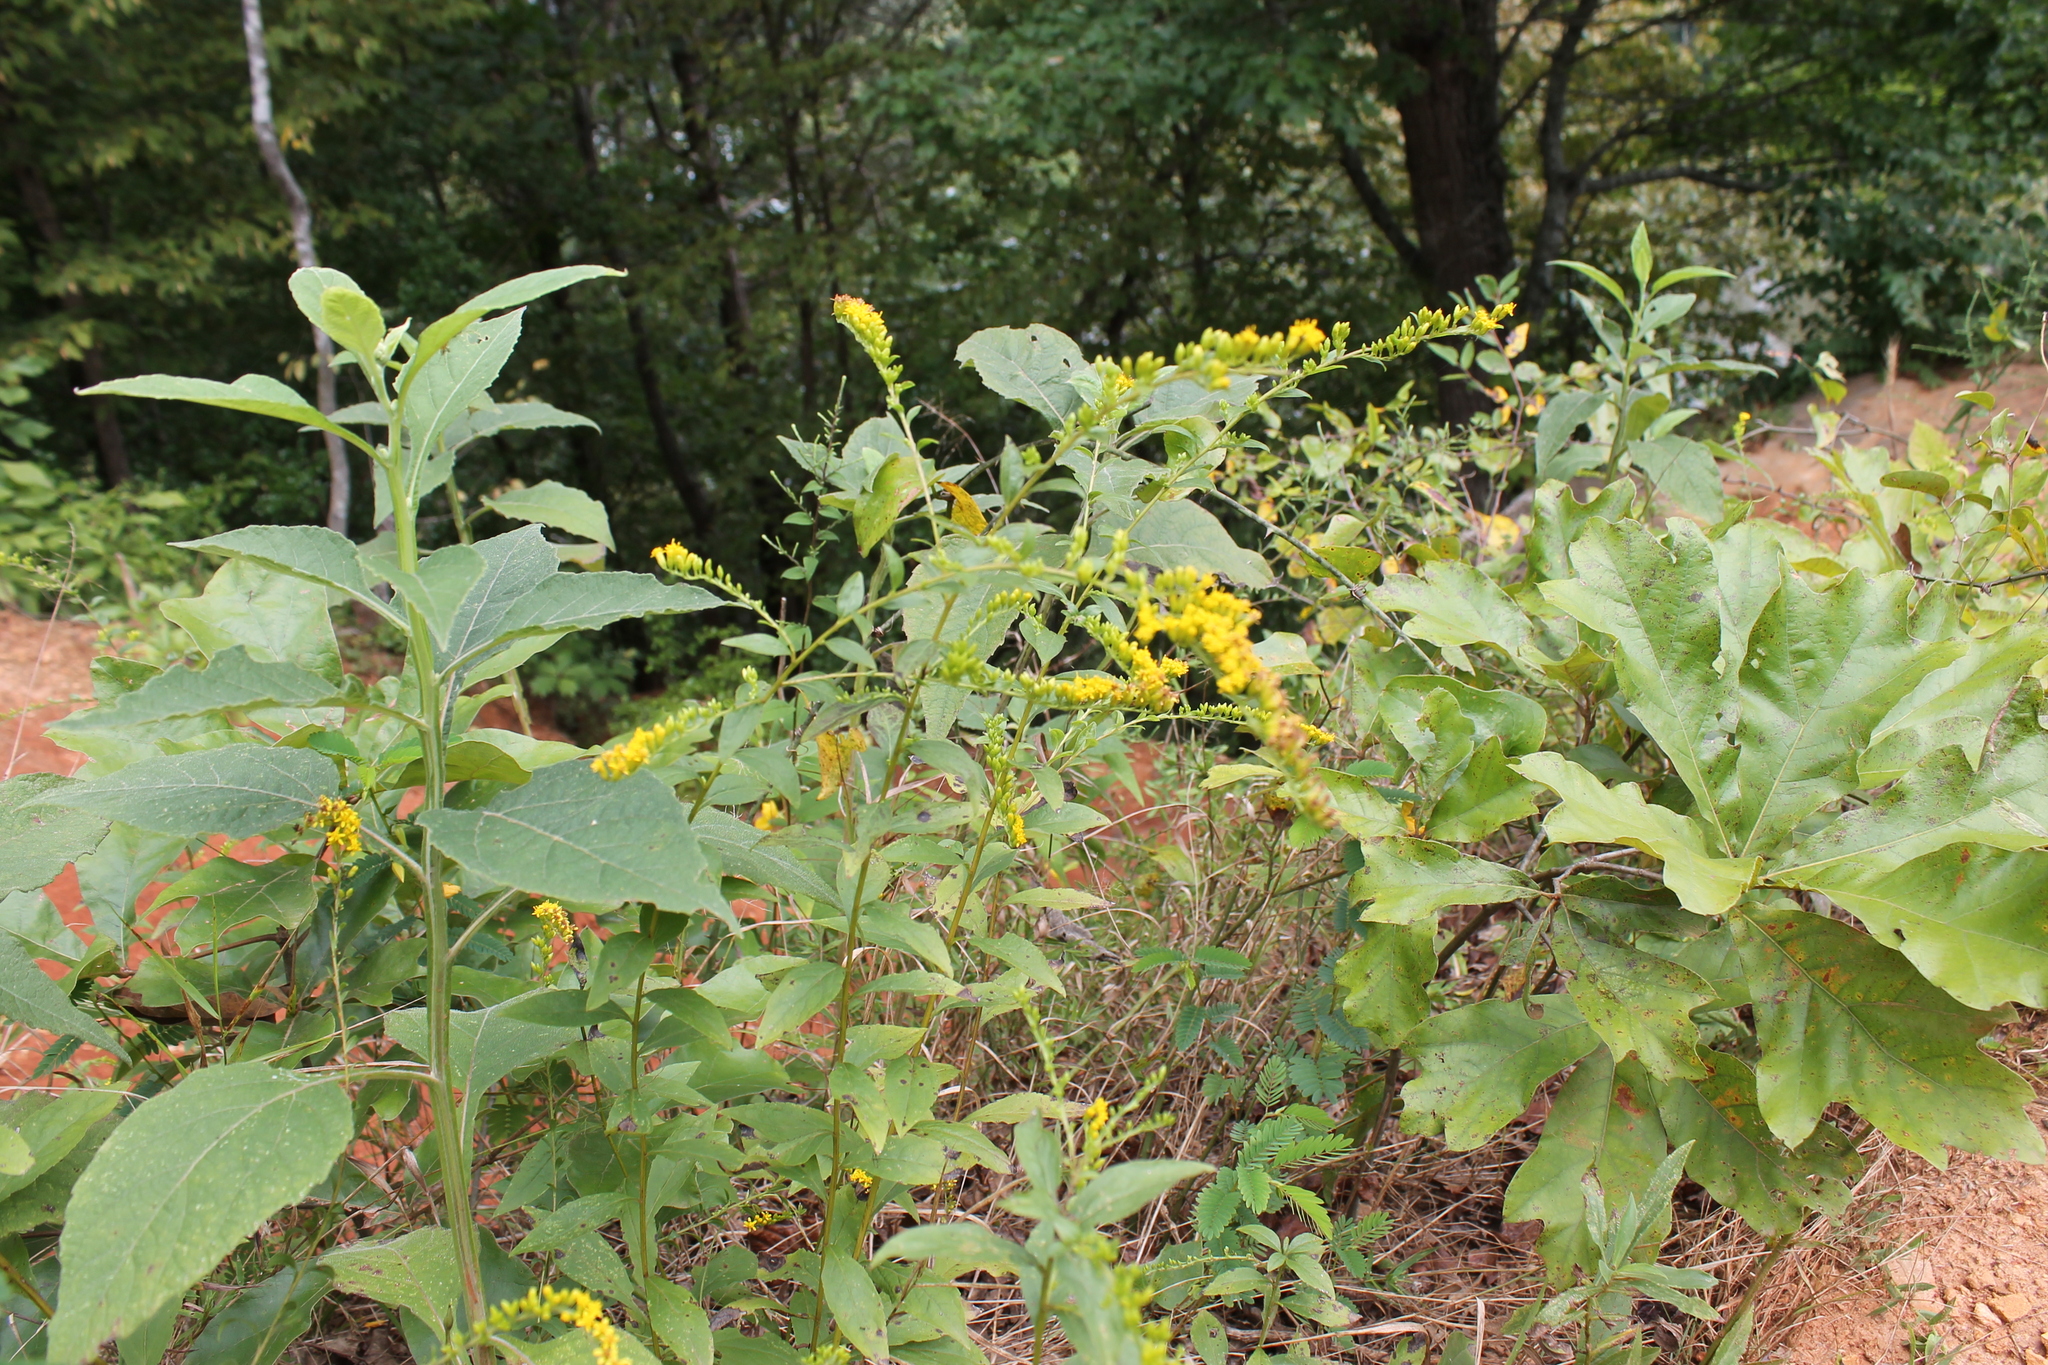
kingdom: Plantae
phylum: Tracheophyta
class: Magnoliopsida
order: Asterales
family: Asteraceae
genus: Solidago
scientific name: Solidago ulmifolia
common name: Elm-leaf goldenrod
